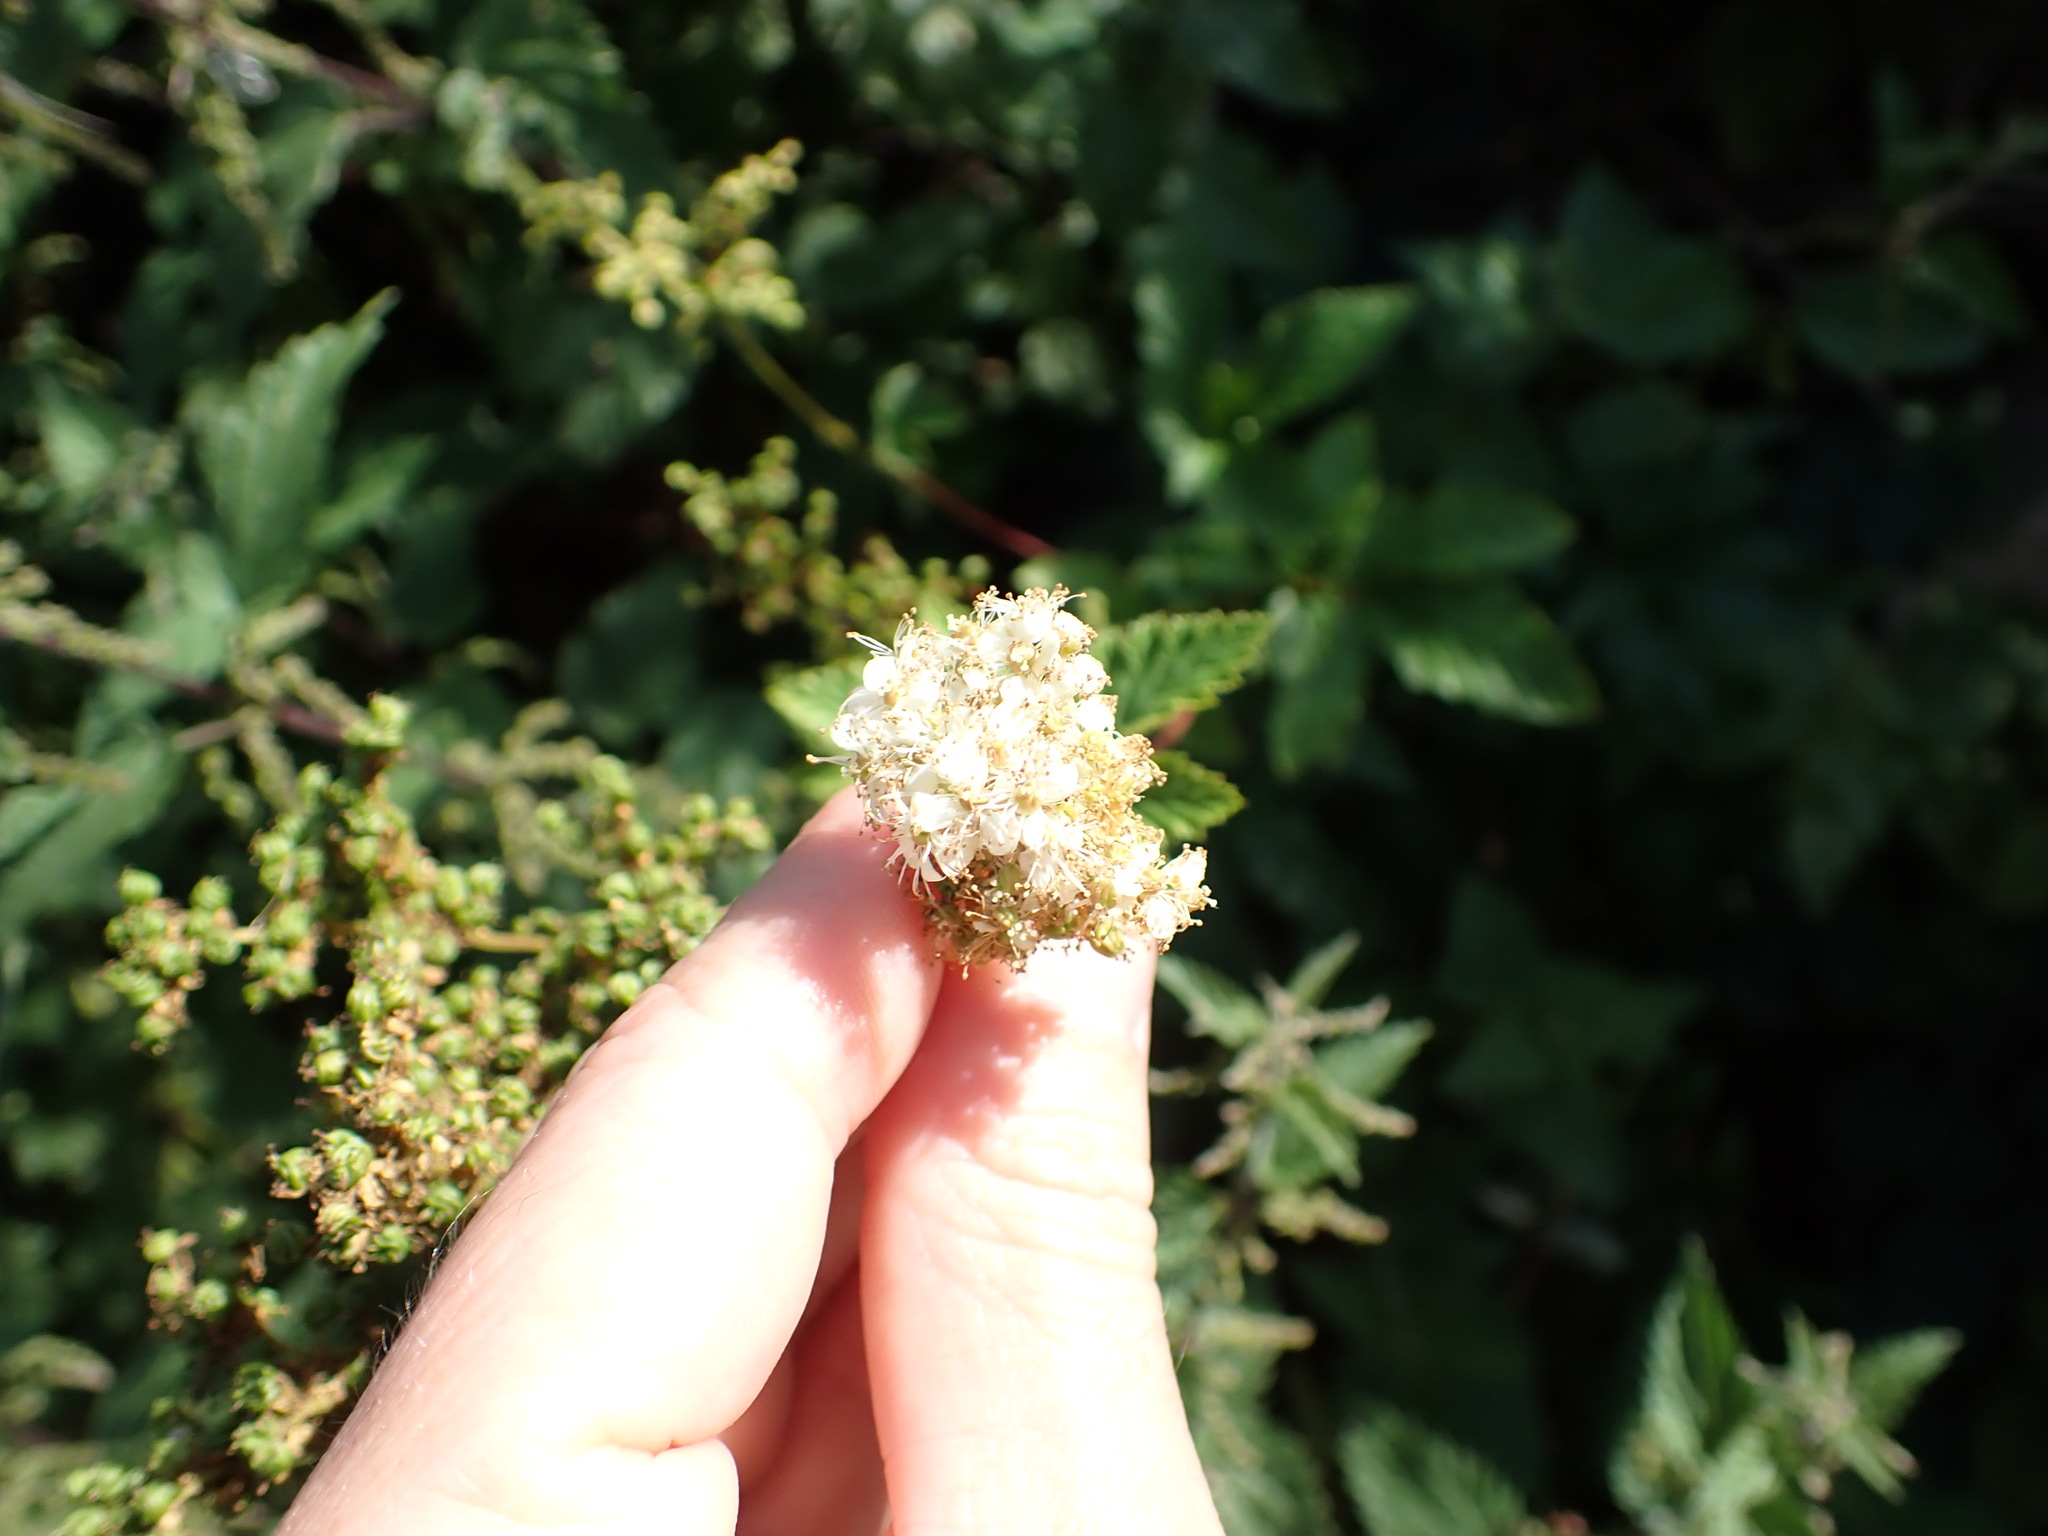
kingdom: Plantae
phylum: Tracheophyta
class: Magnoliopsida
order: Rosales
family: Rosaceae
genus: Filipendula
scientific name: Filipendula ulmaria
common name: Meadowsweet
